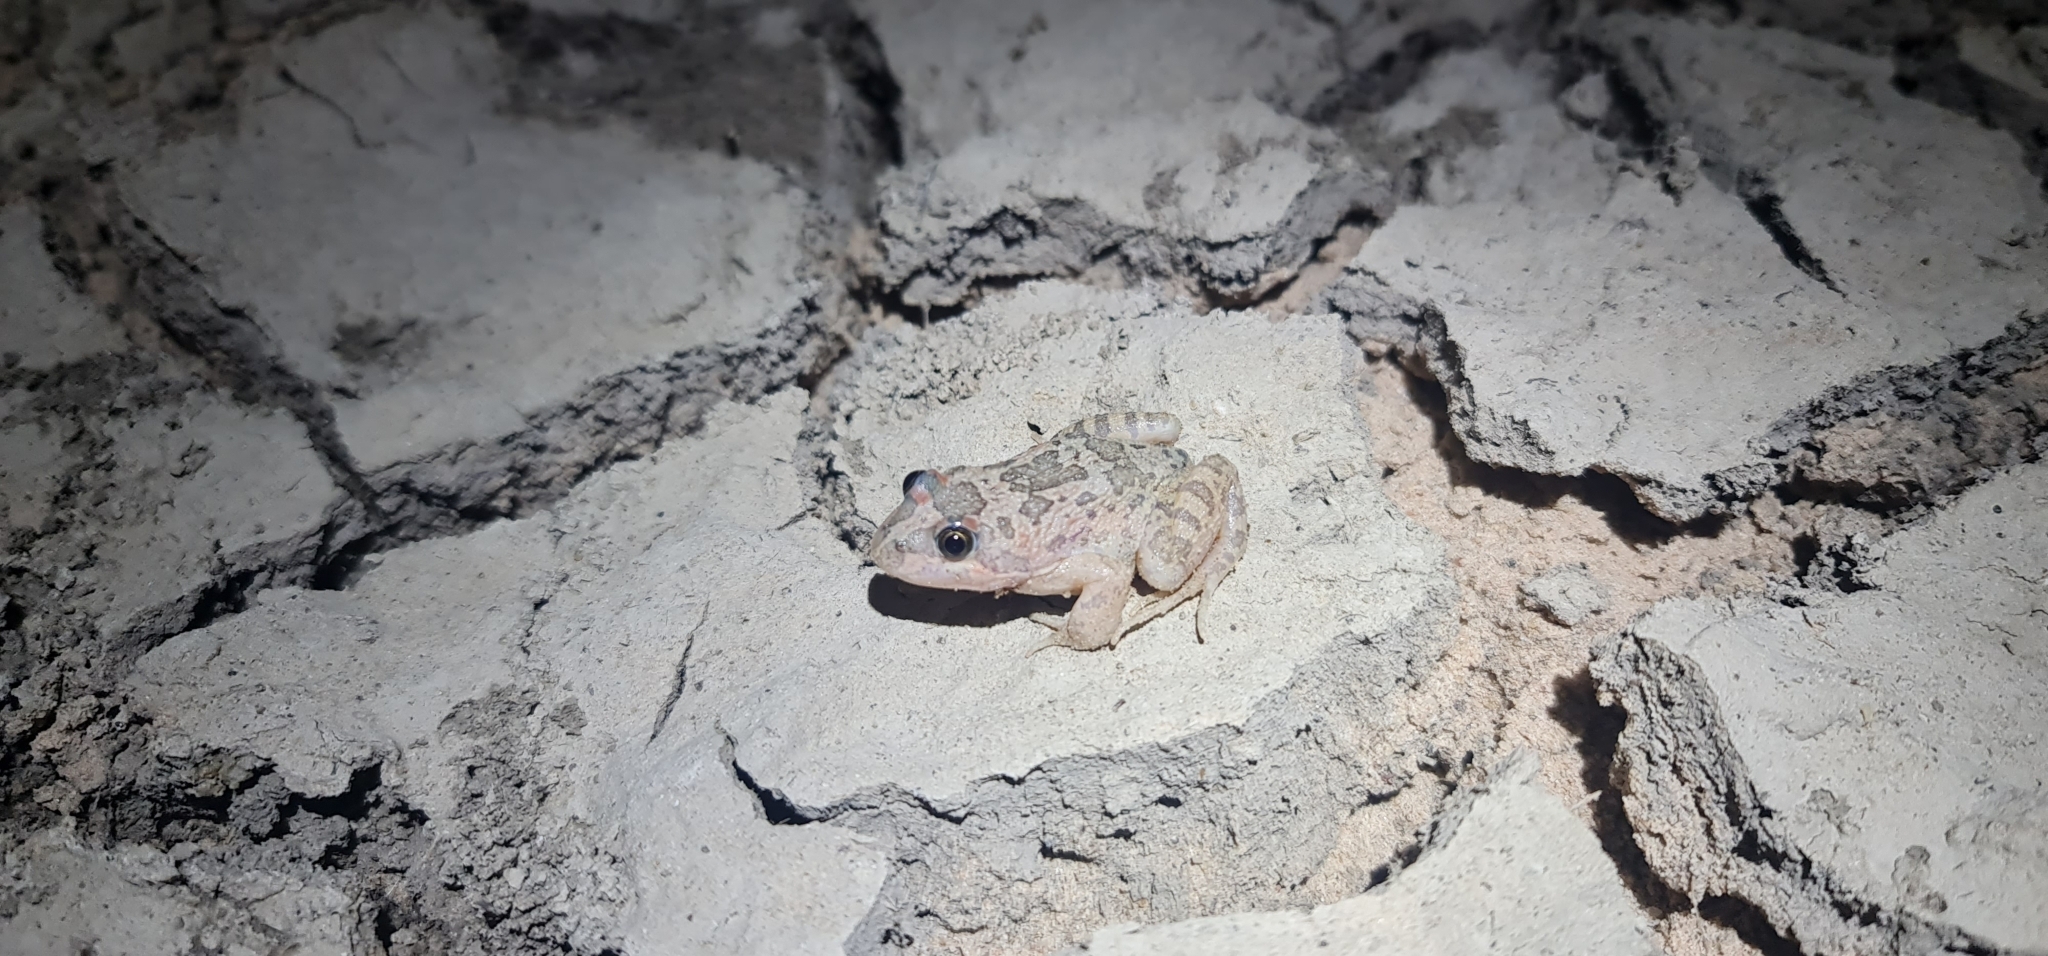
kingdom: Animalia
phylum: Chordata
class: Amphibia
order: Anura
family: Limnodynastidae
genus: Limnodynastes
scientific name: Limnodynastes fletcheri
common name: Barking frog
